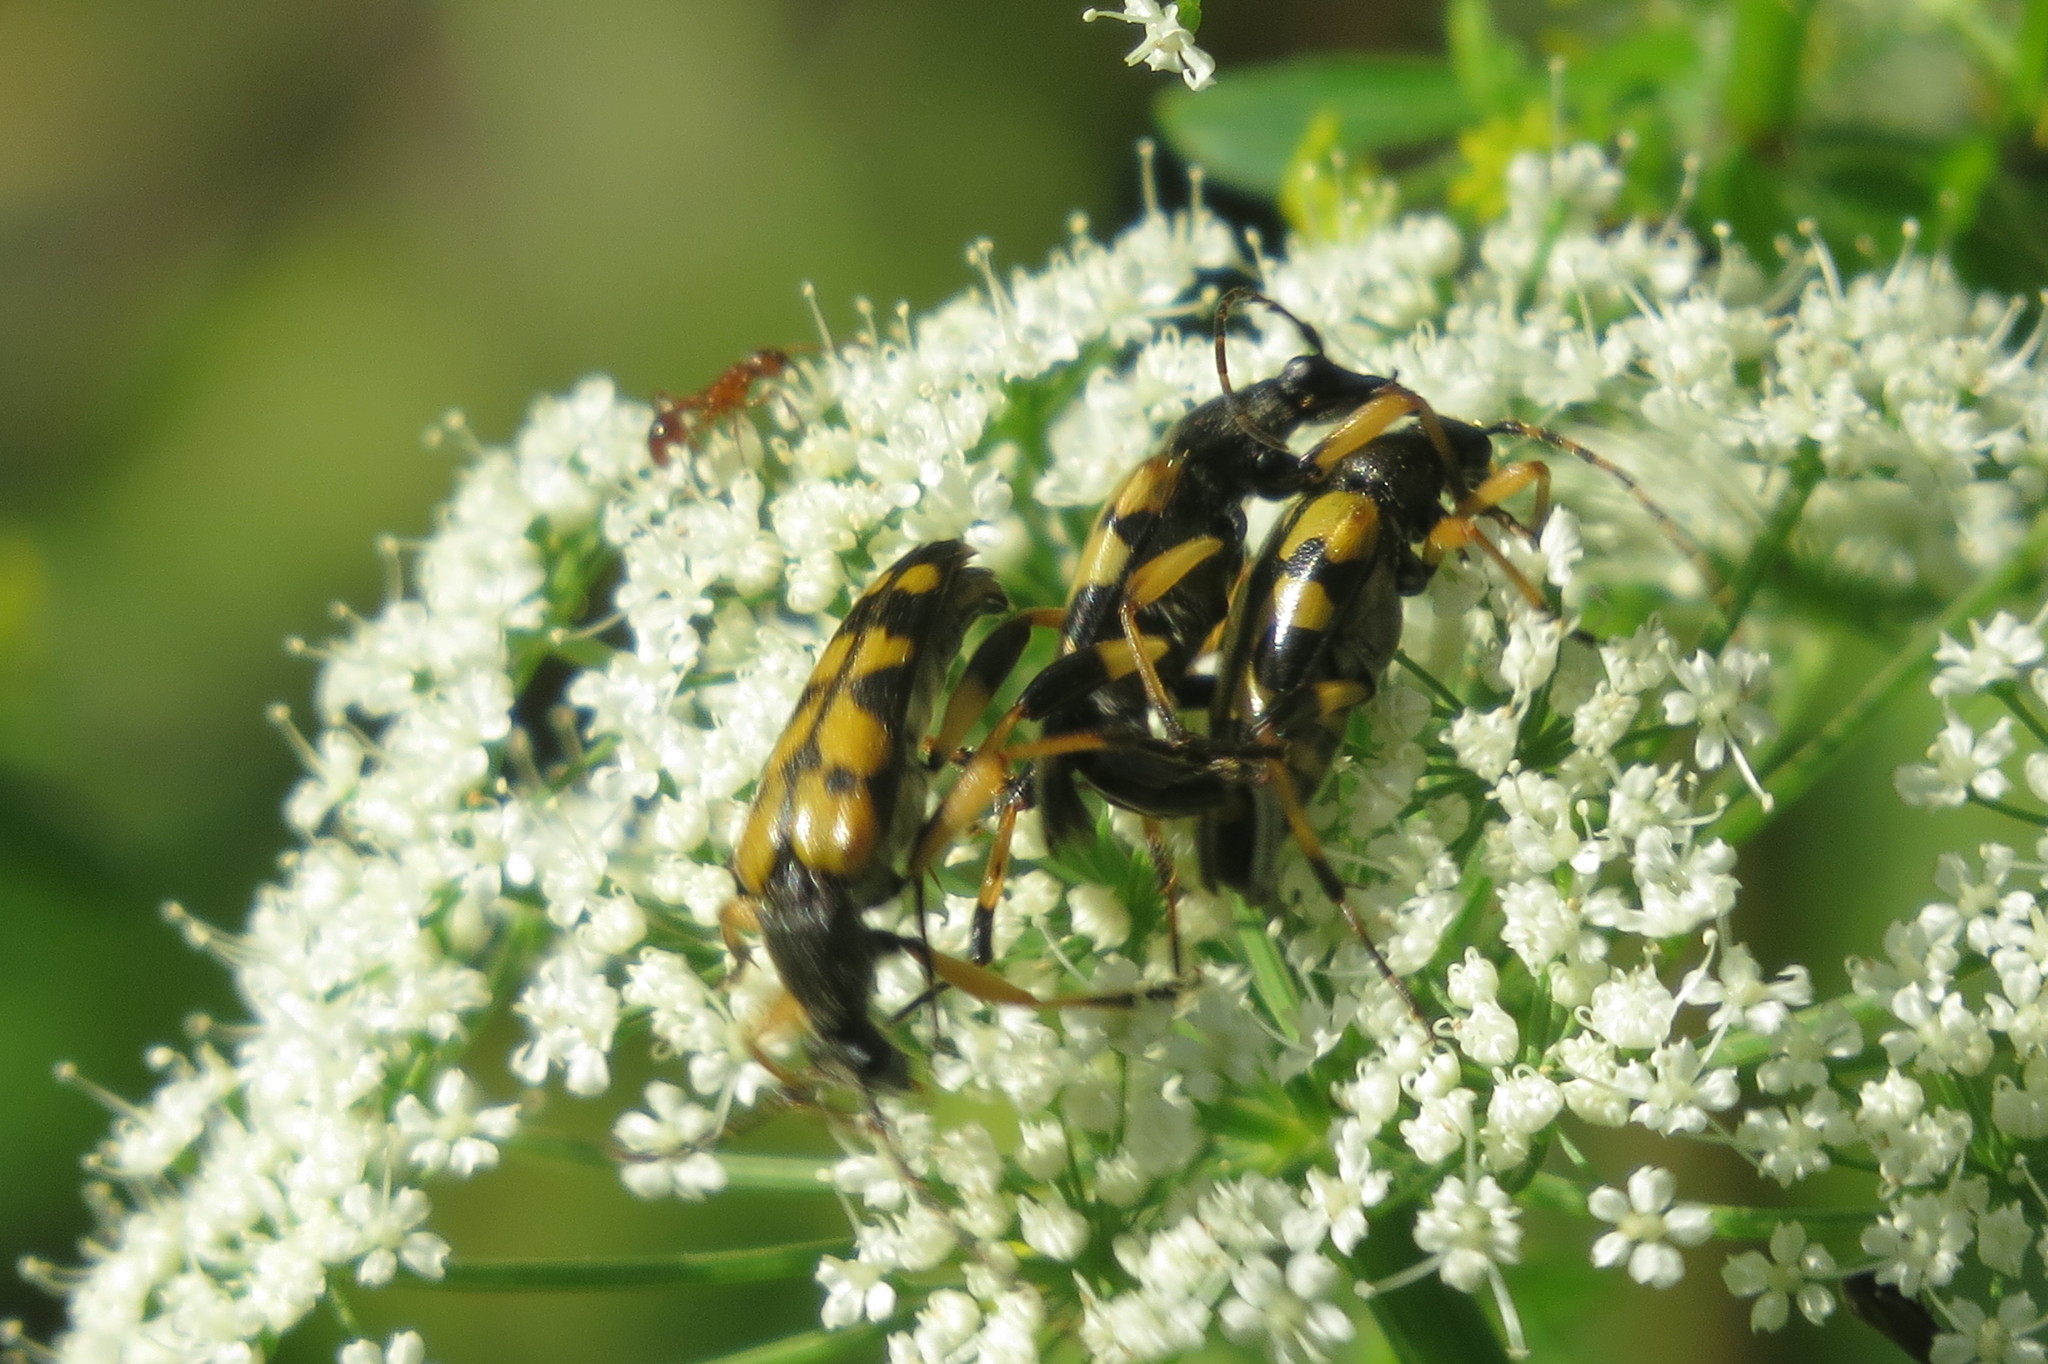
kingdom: Animalia
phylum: Arthropoda
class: Insecta
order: Coleoptera
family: Cerambycidae
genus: Rutpela
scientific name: Rutpela maculata
